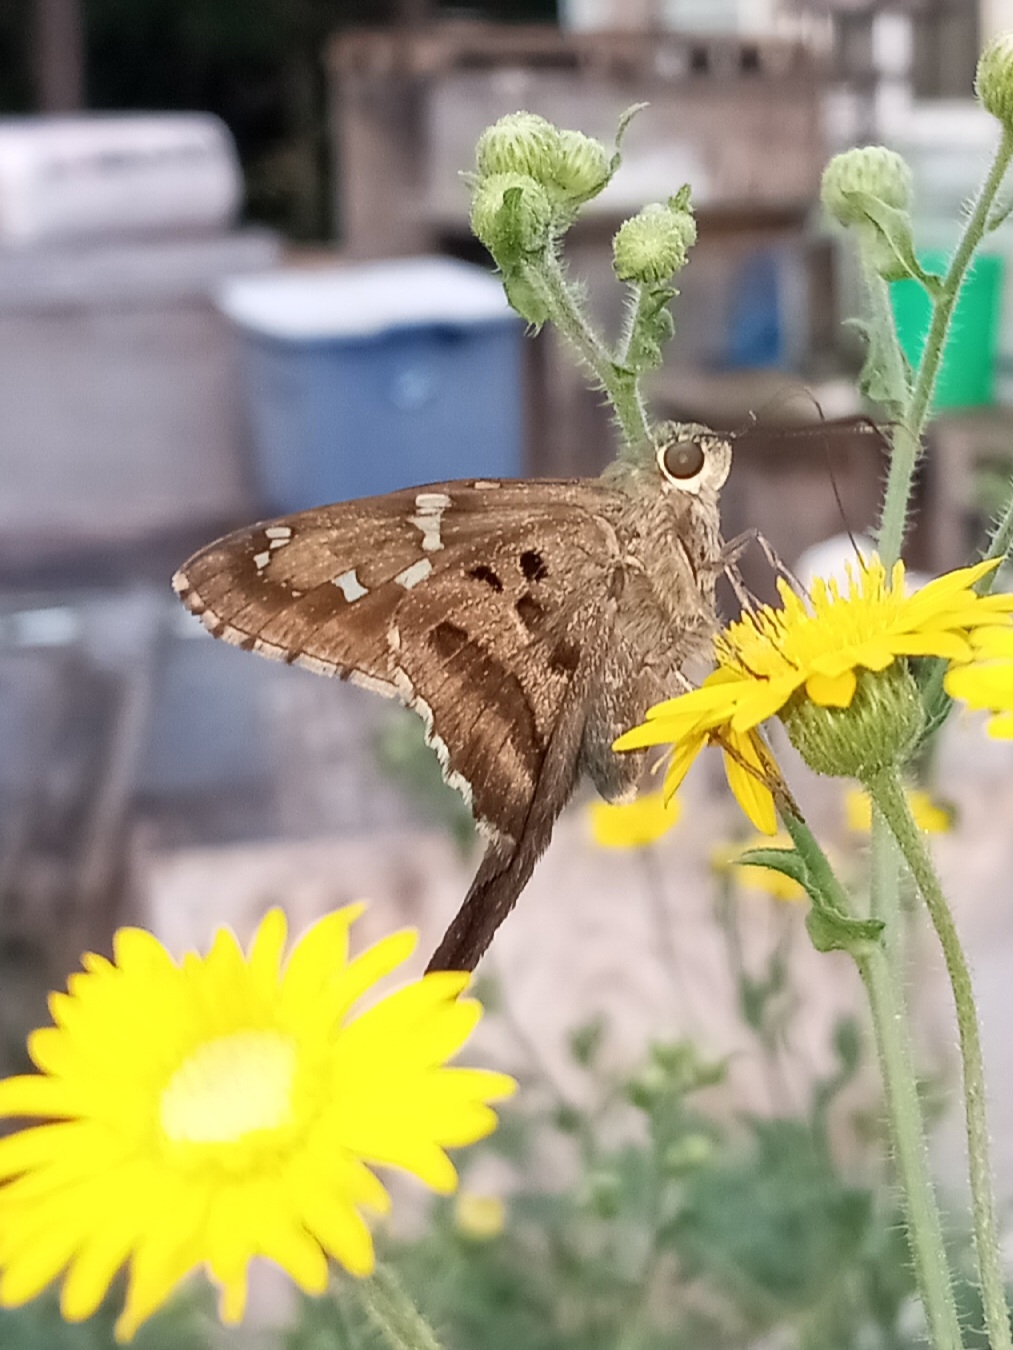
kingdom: Animalia
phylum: Arthropoda
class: Insecta
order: Lepidoptera
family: Hesperiidae
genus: Urbanus
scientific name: Urbanus proteus
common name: Long-tailed skipper
